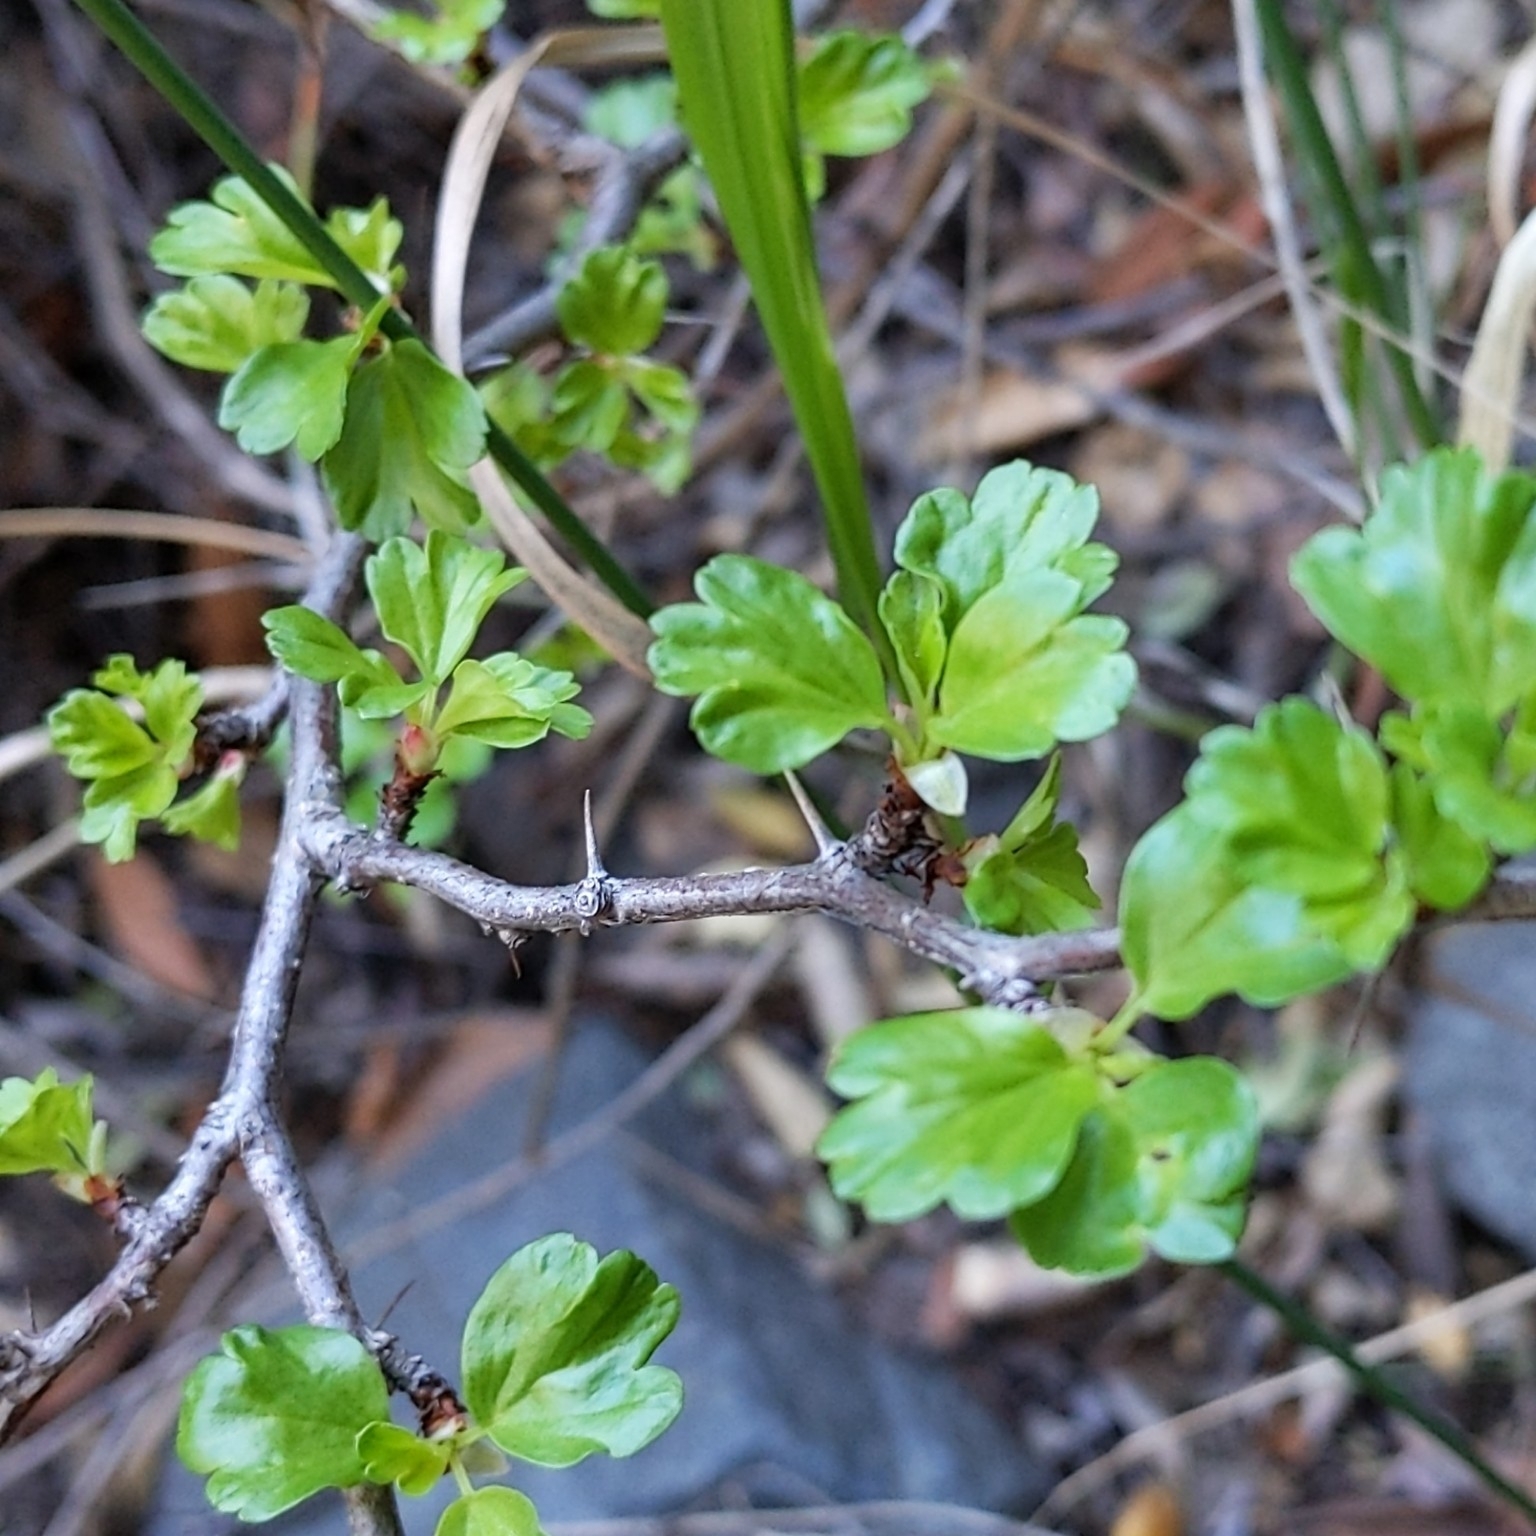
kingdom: Plantae
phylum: Tracheophyta
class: Magnoliopsida
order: Saxifragales
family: Grossulariaceae
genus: Ribes
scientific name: Ribes speciosum
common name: Fuchsia-flower gooseberry
